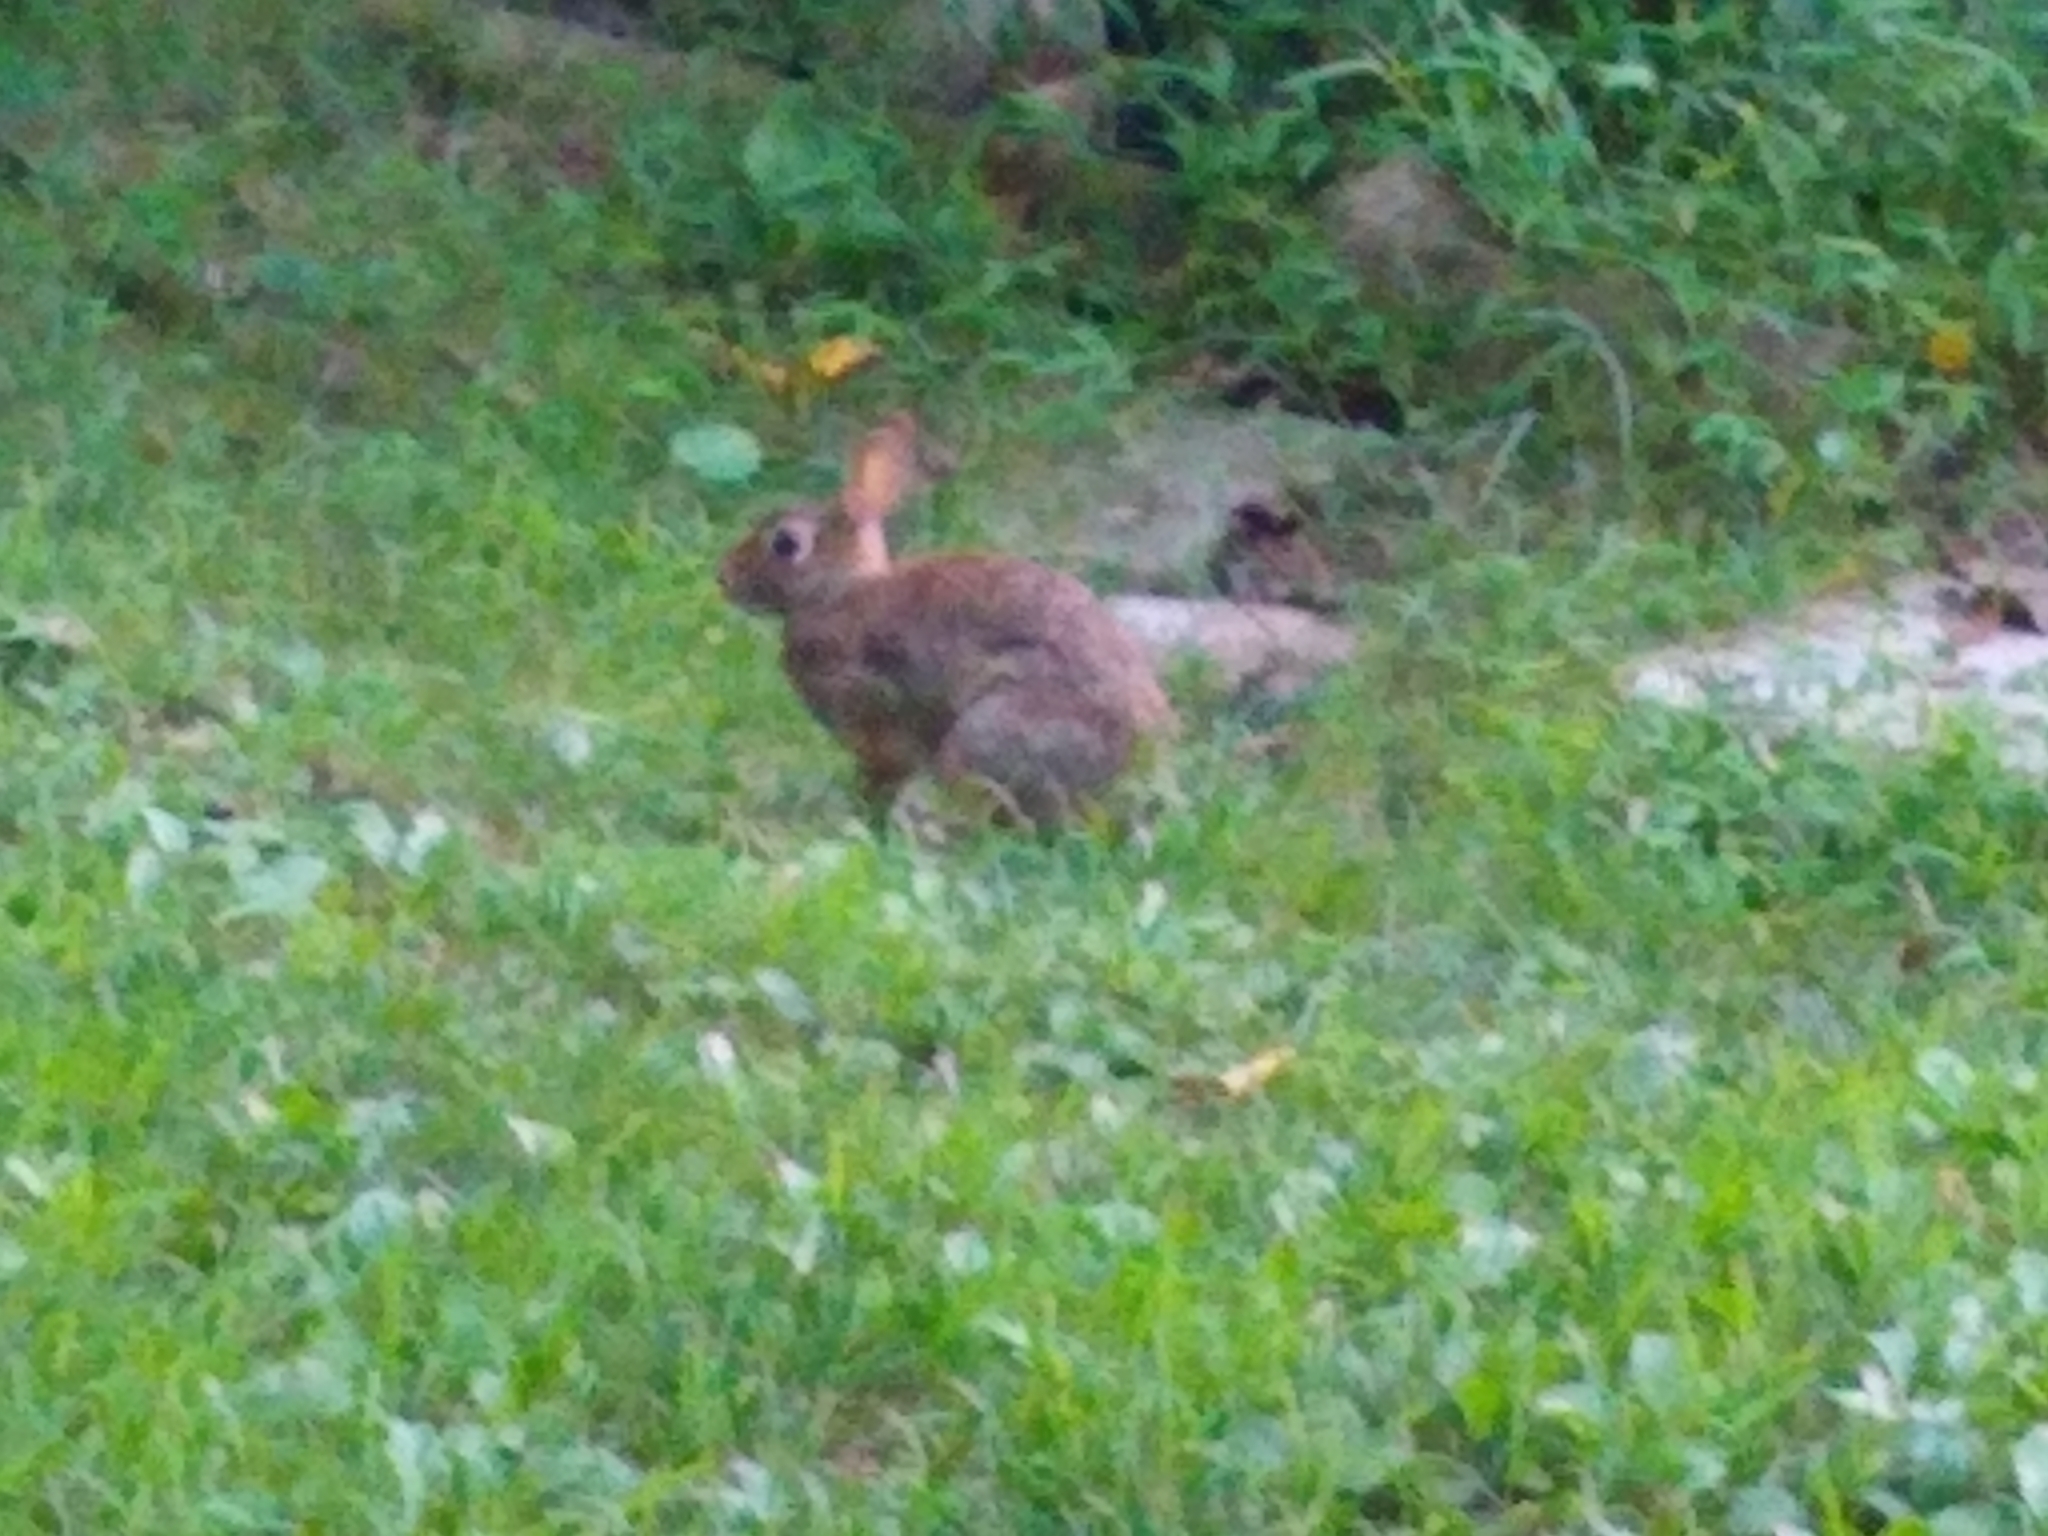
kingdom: Animalia
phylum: Chordata
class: Mammalia
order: Lagomorpha
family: Leporidae
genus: Sylvilagus
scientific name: Sylvilagus floridanus
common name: Eastern cottontail
